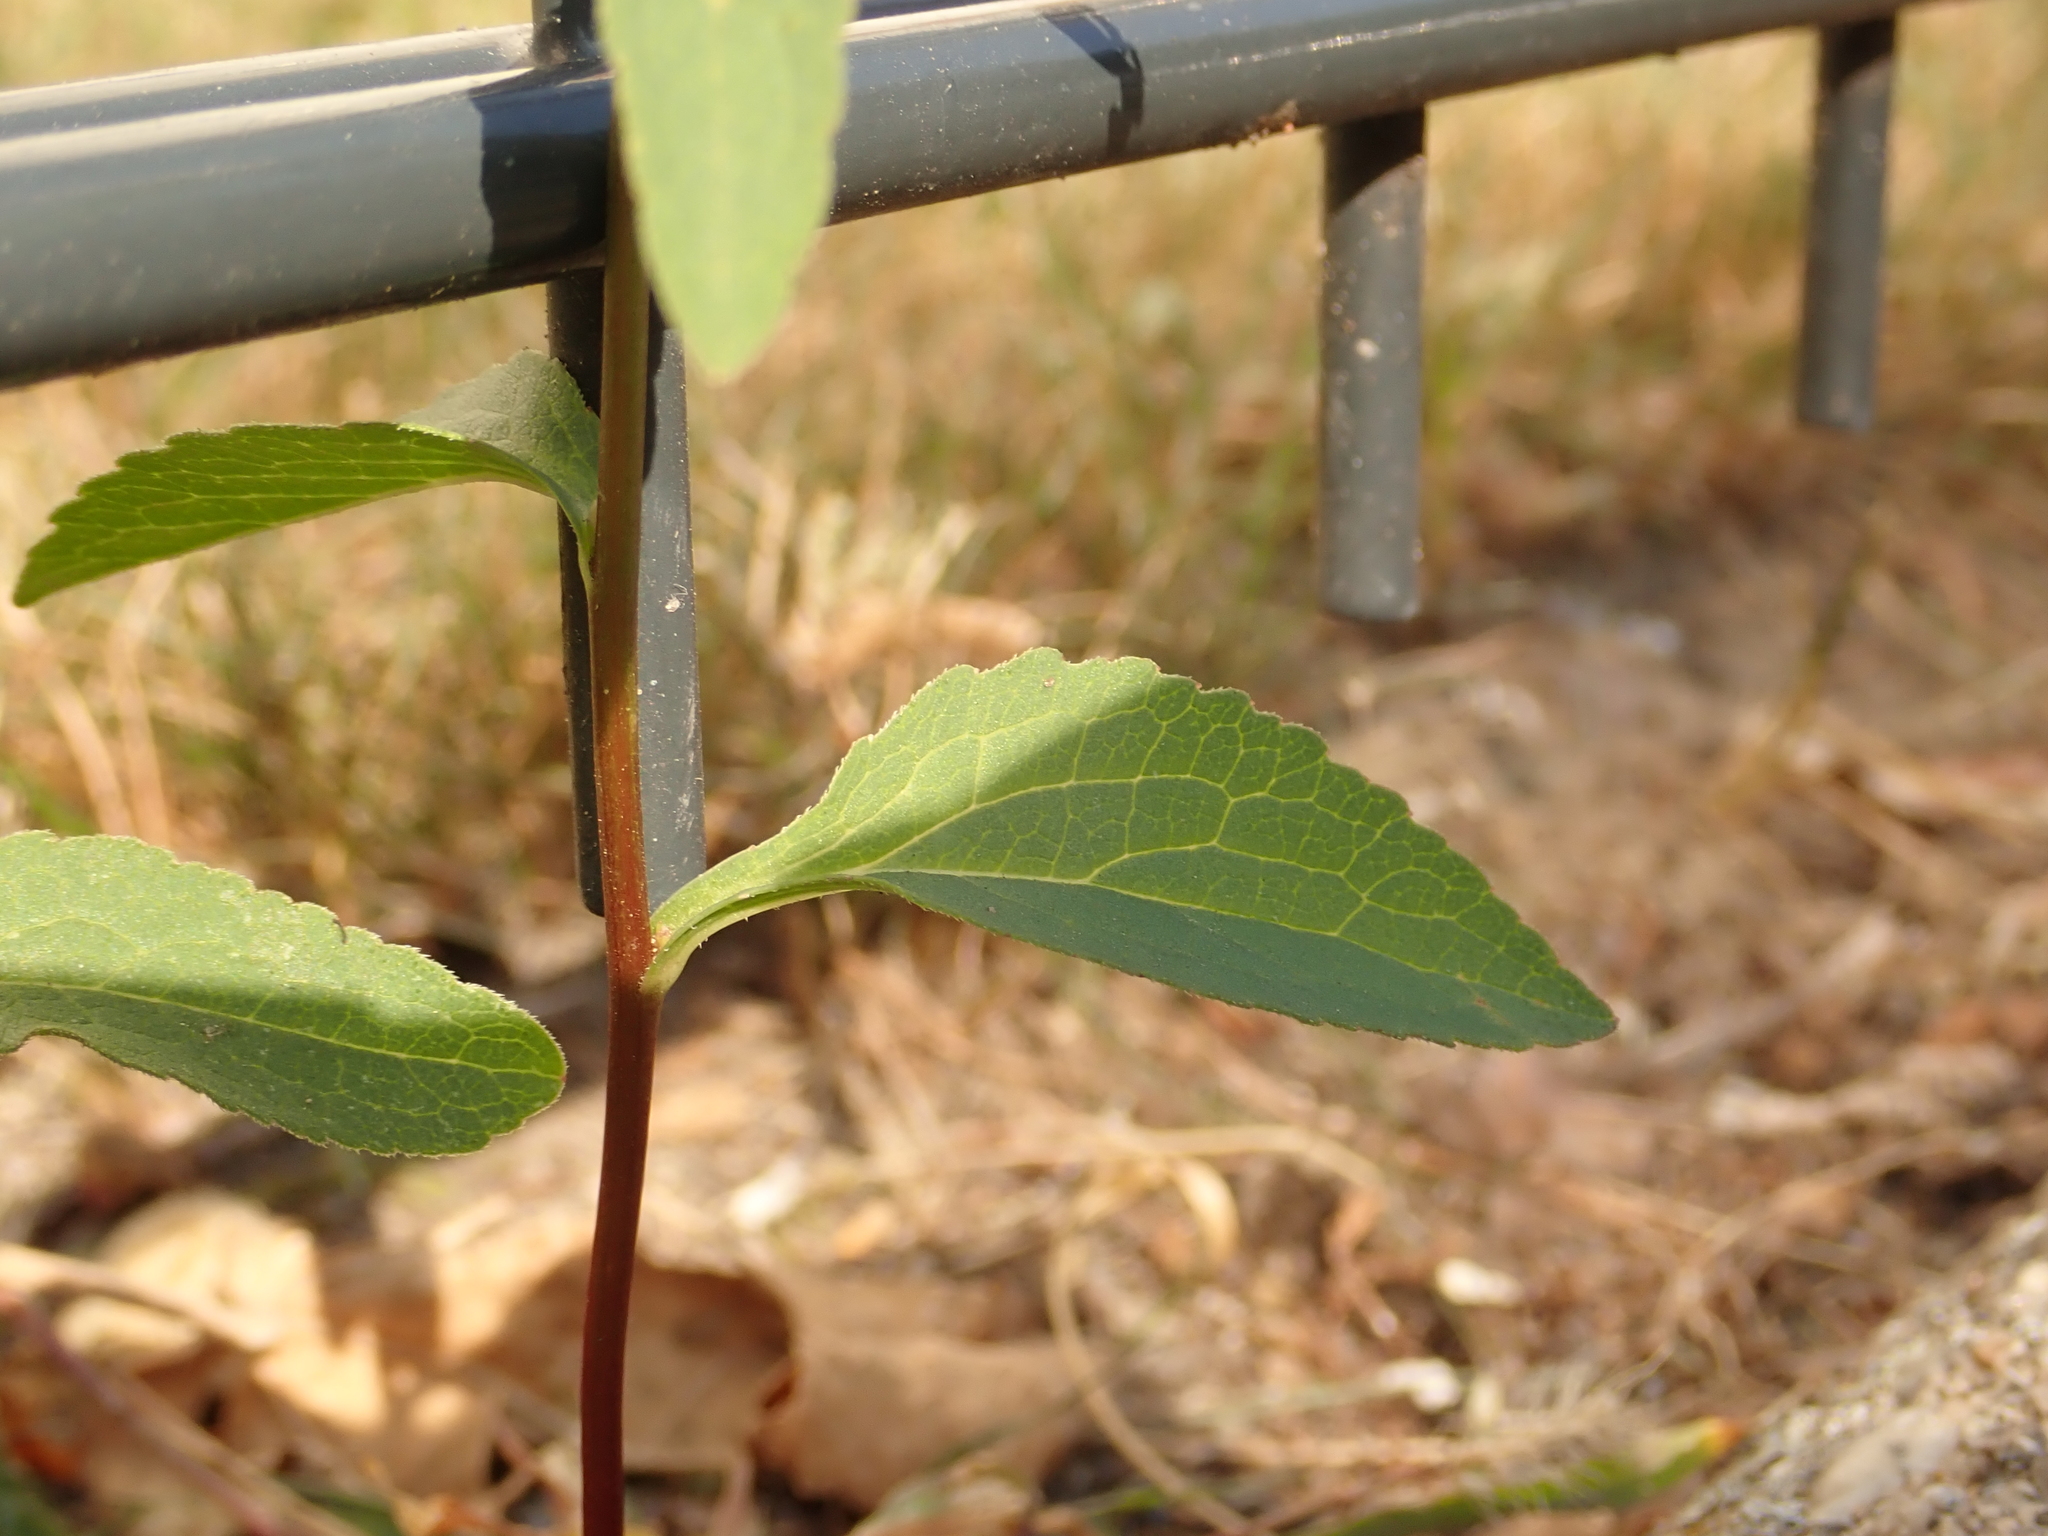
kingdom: Plantae
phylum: Tracheophyta
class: Magnoliopsida
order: Asterales
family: Campanulaceae
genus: Campanula
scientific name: Campanula rapunculoides
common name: Creeping bellflower
